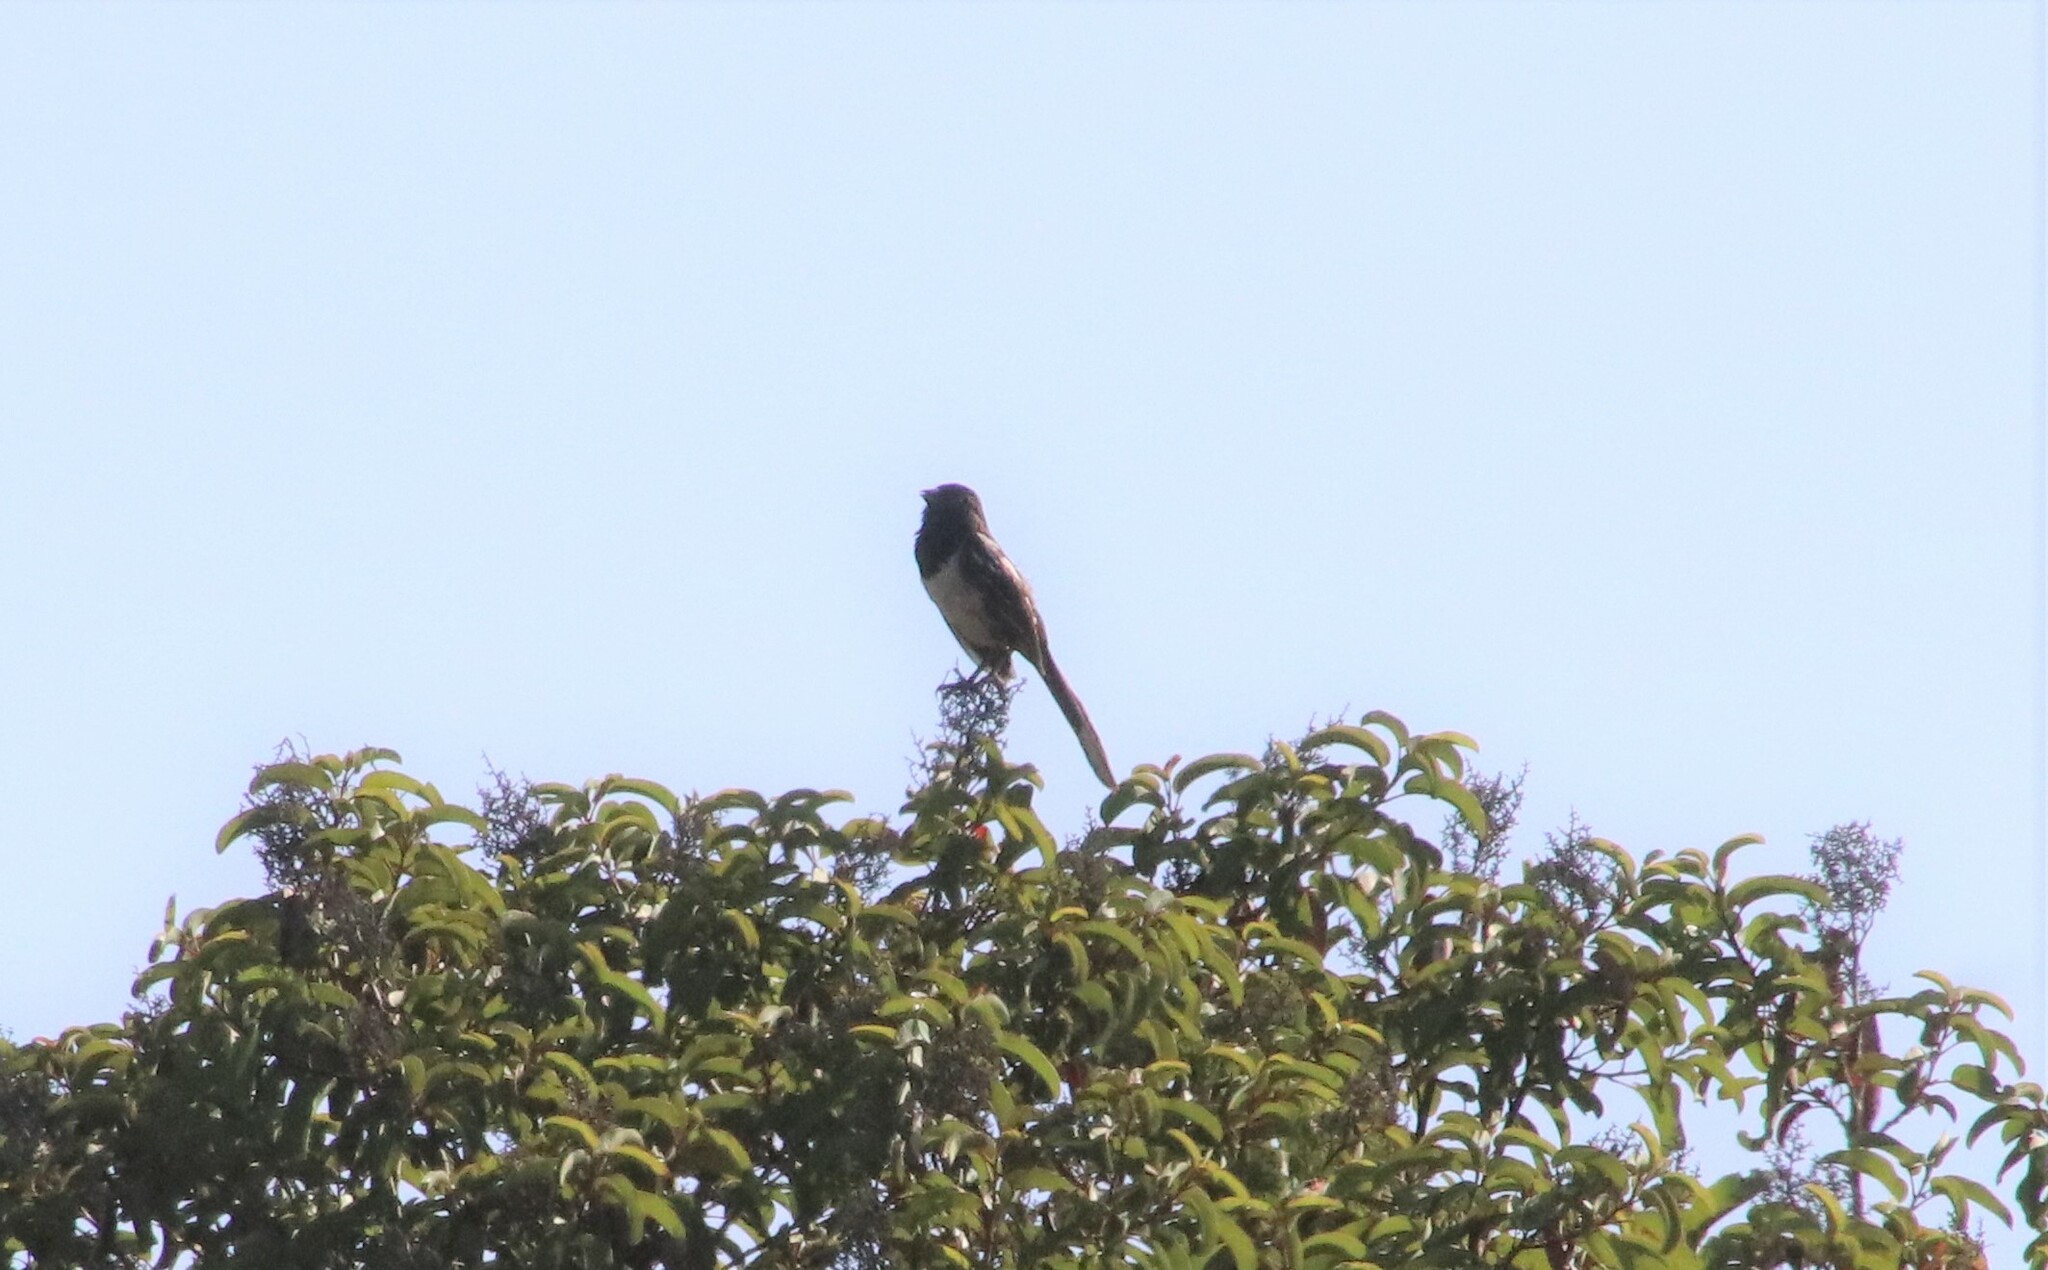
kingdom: Animalia
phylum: Chordata
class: Aves
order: Passeriformes
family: Passerellidae
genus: Pipilo
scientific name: Pipilo maculatus
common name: Spotted towhee
